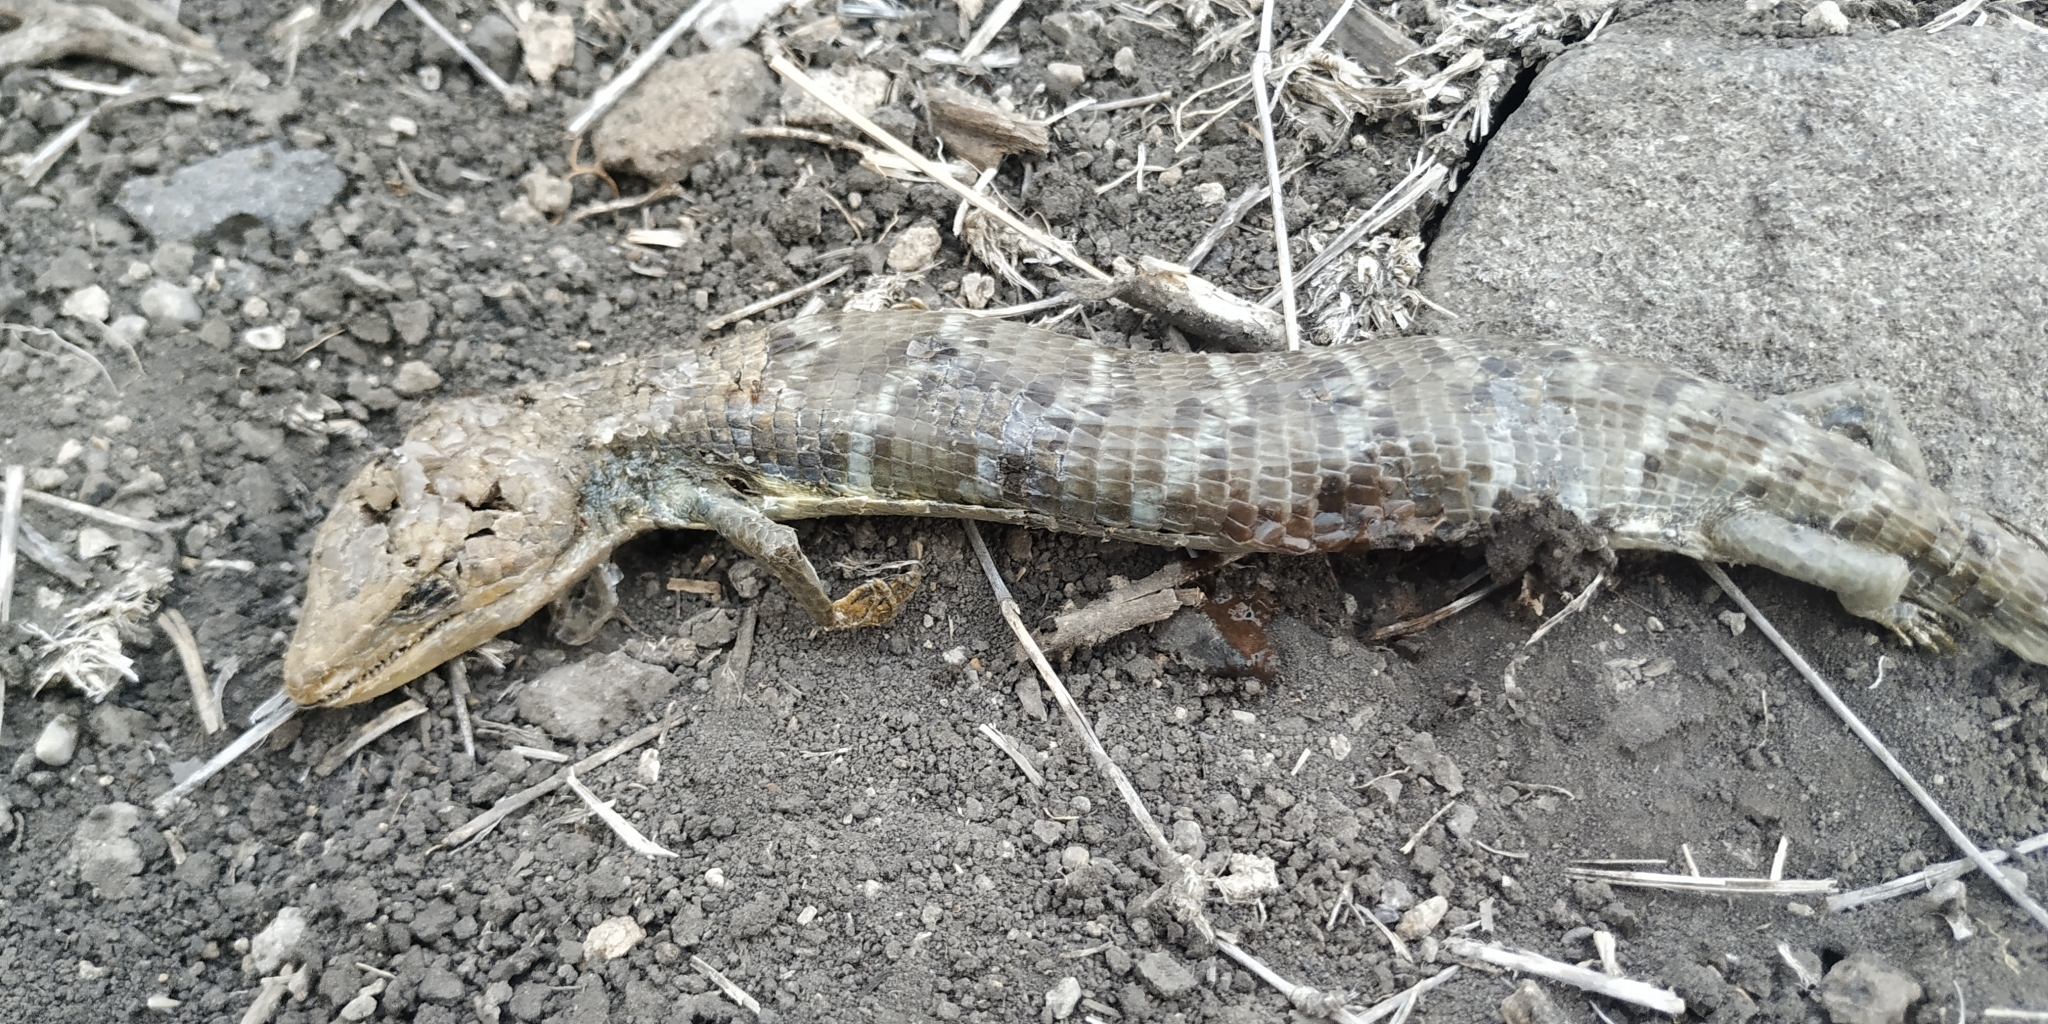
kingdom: Animalia
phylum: Chordata
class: Squamata
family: Anguidae
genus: Gerrhonotus
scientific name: Gerrhonotus infernalis
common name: Texas alligator lizard
